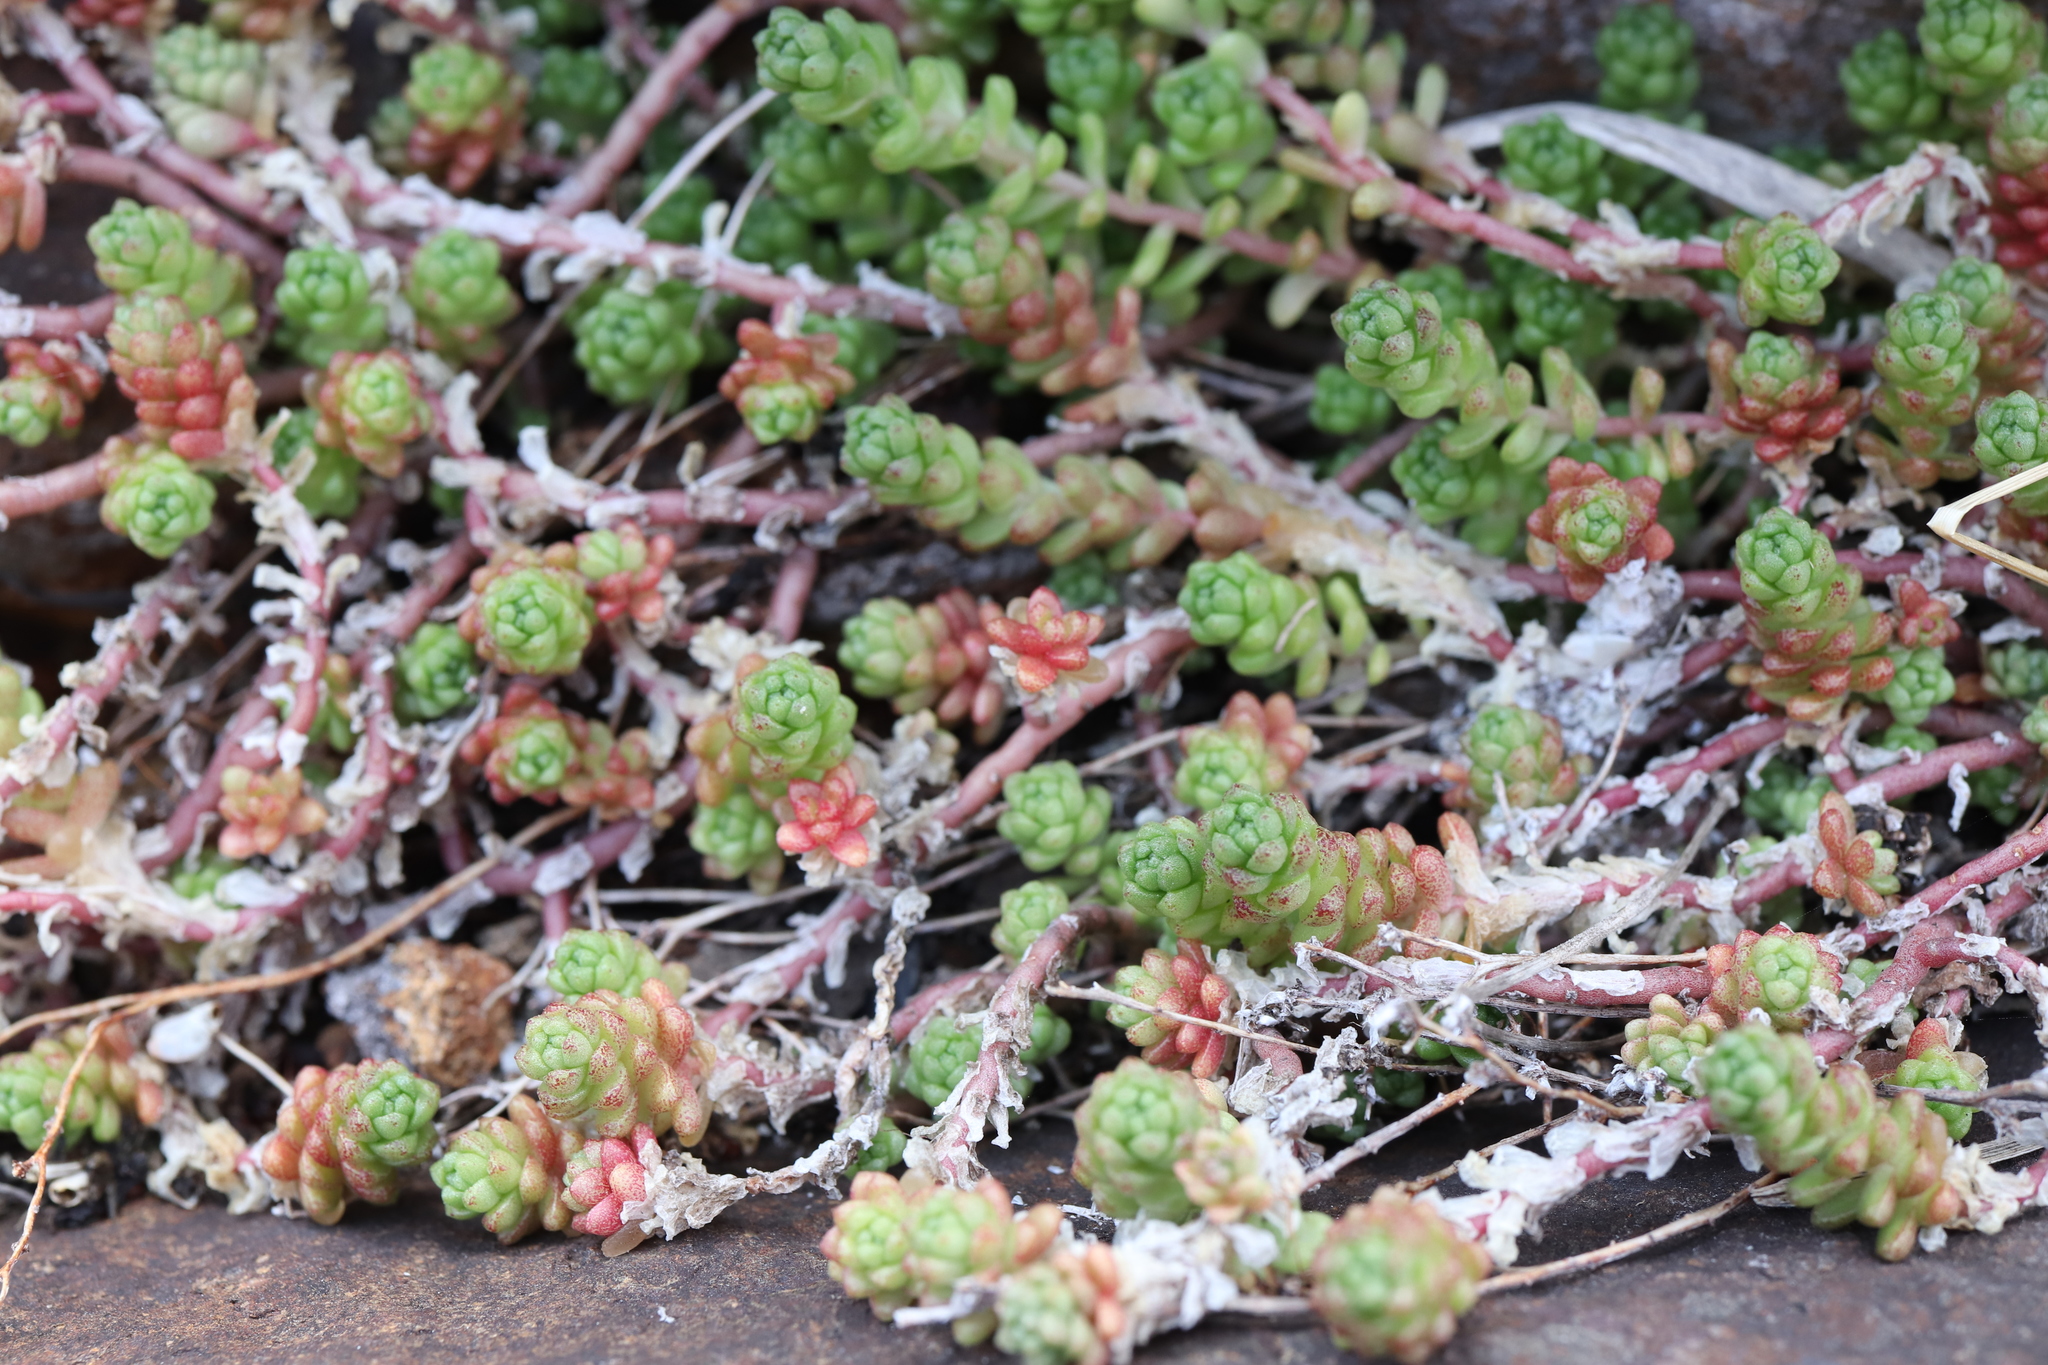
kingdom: Plantae
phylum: Tracheophyta
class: Magnoliopsida
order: Saxifragales
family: Crassulaceae
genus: Sedum
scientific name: Sedum japonicum
